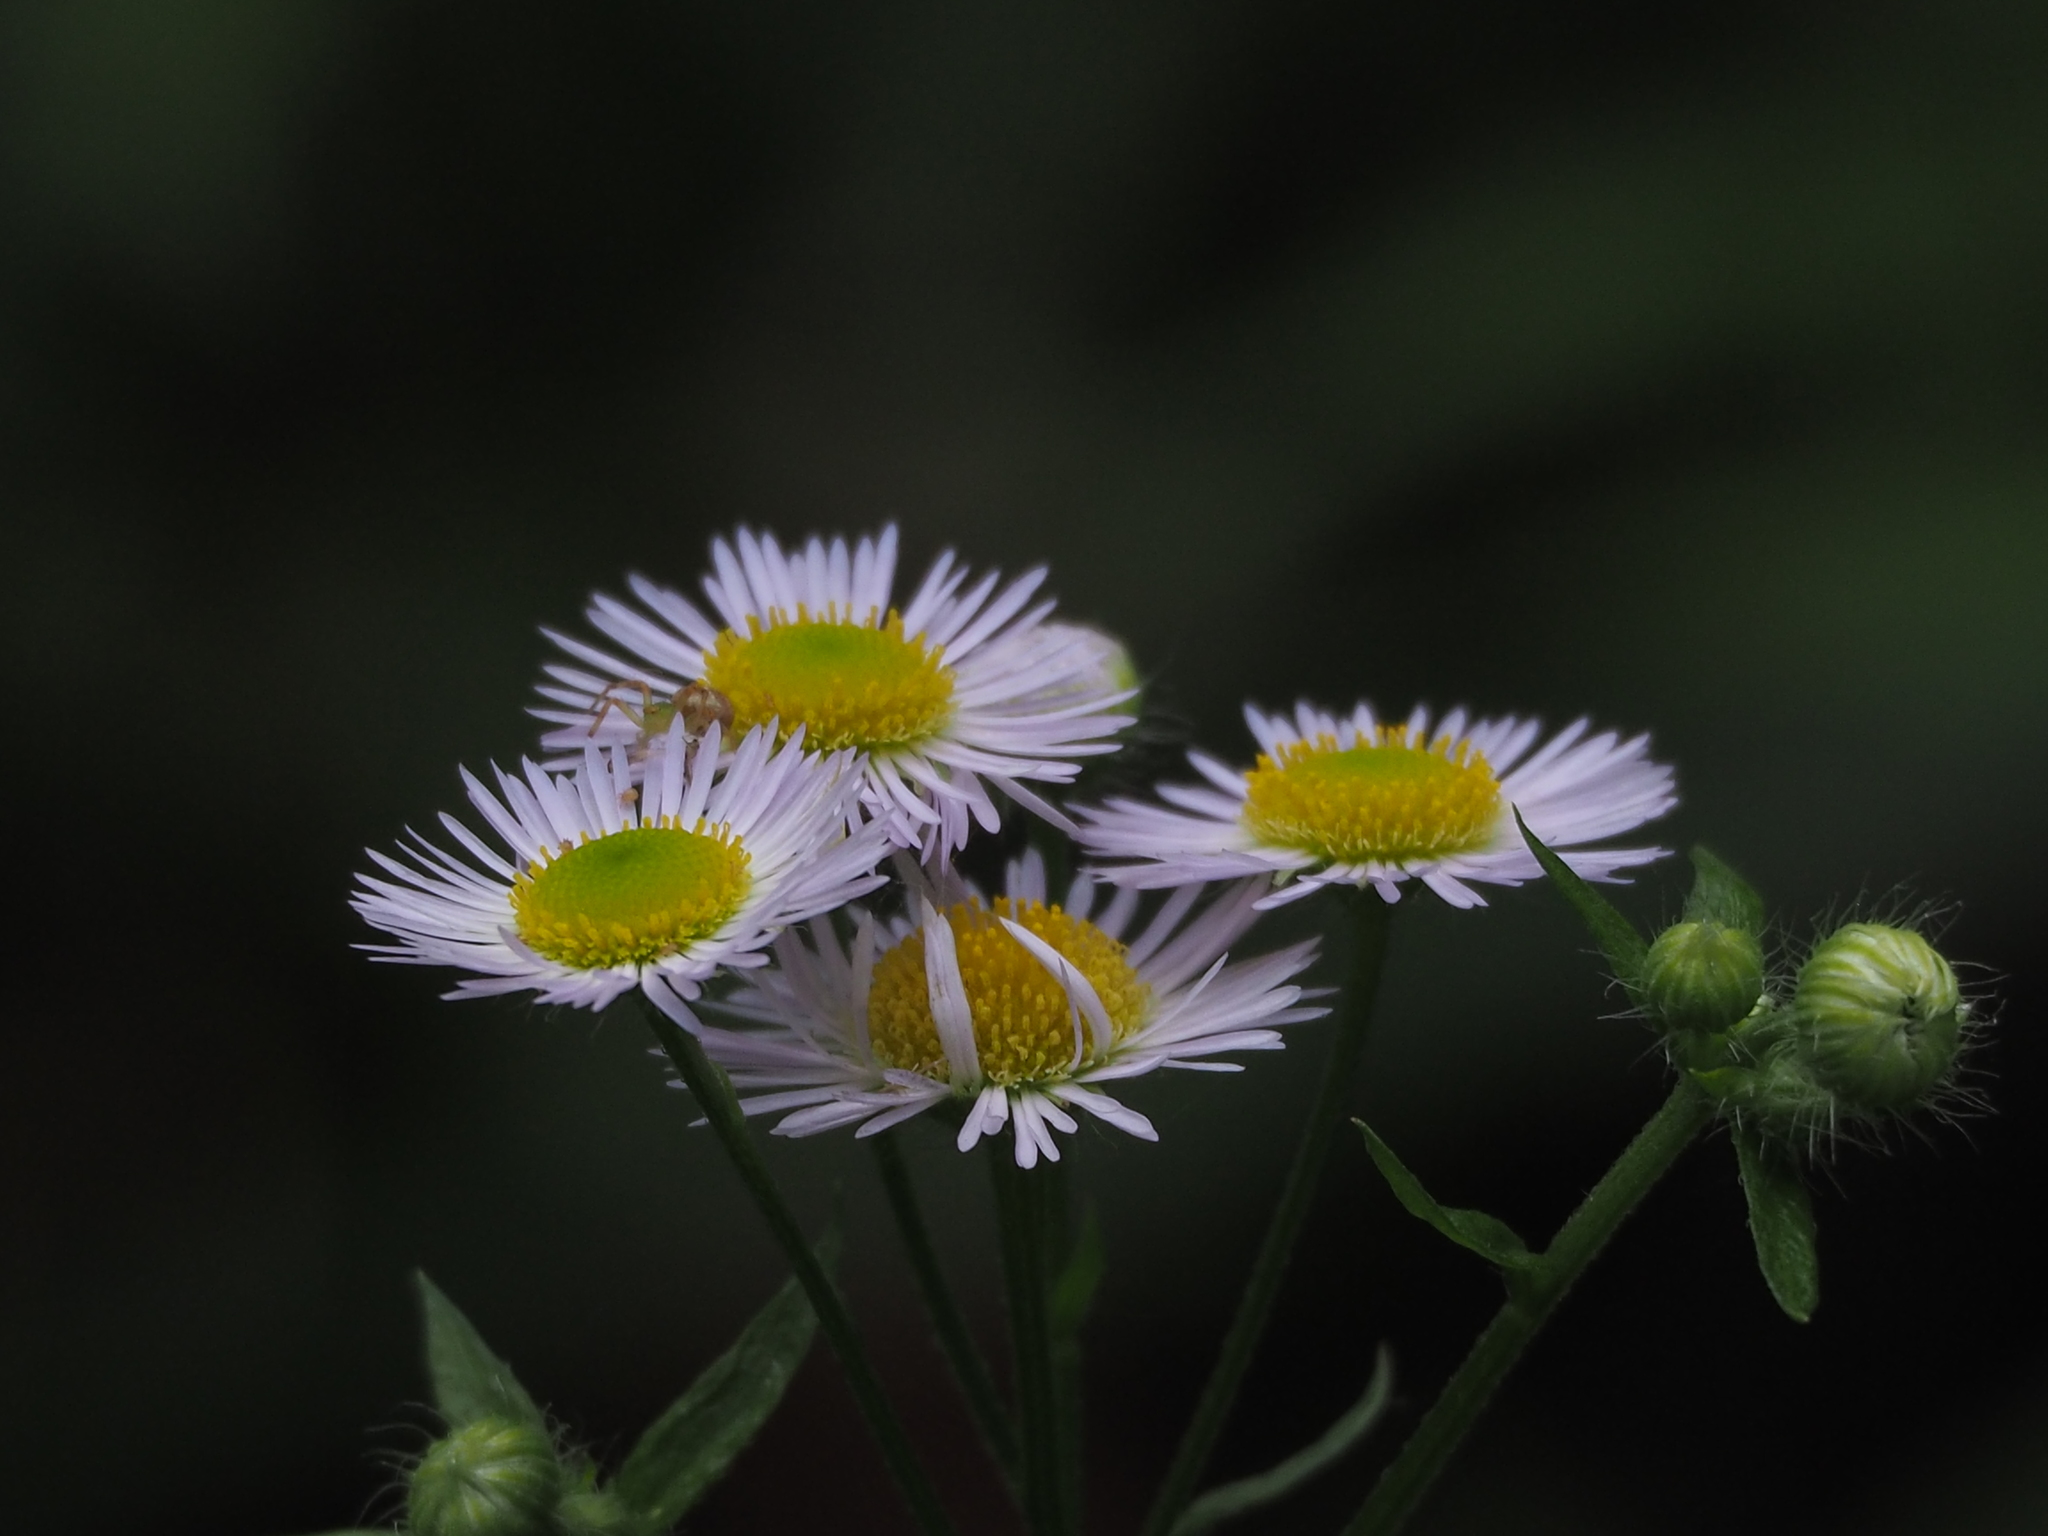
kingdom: Plantae
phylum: Tracheophyta
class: Magnoliopsida
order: Asterales
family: Asteraceae
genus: Erigeron
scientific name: Erigeron annuus
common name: Tall fleabane
